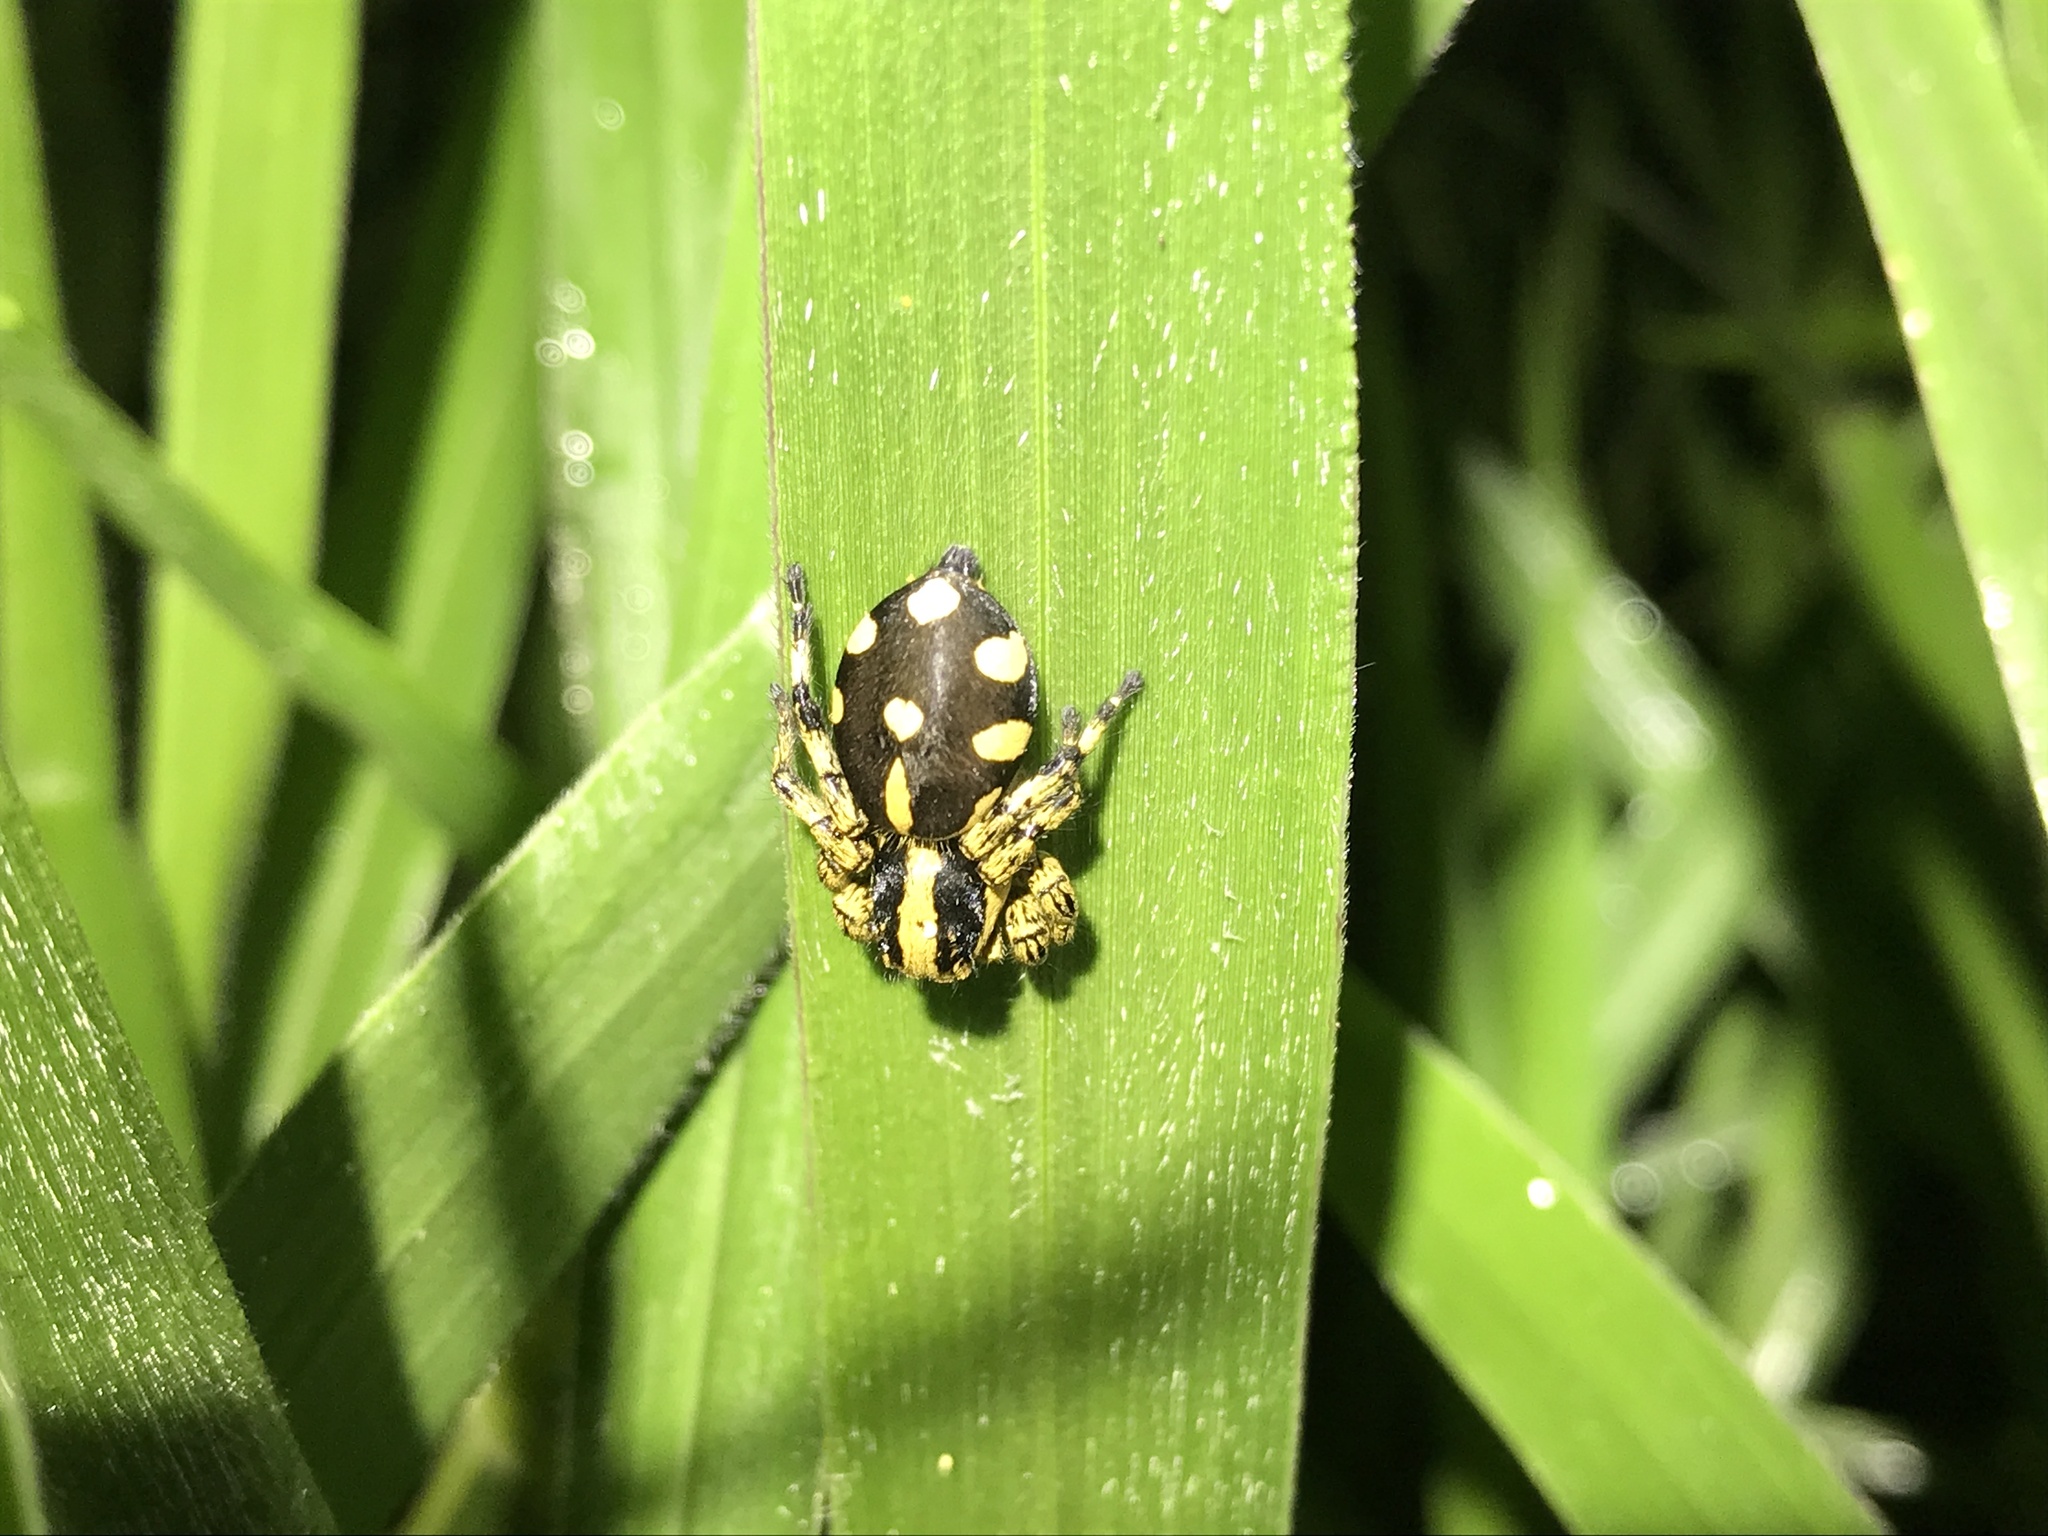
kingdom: Animalia
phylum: Arthropoda
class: Arachnida
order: Araneae
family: Salticidae
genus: Phiale
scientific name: Phiale guttata
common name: Jumping spiders
